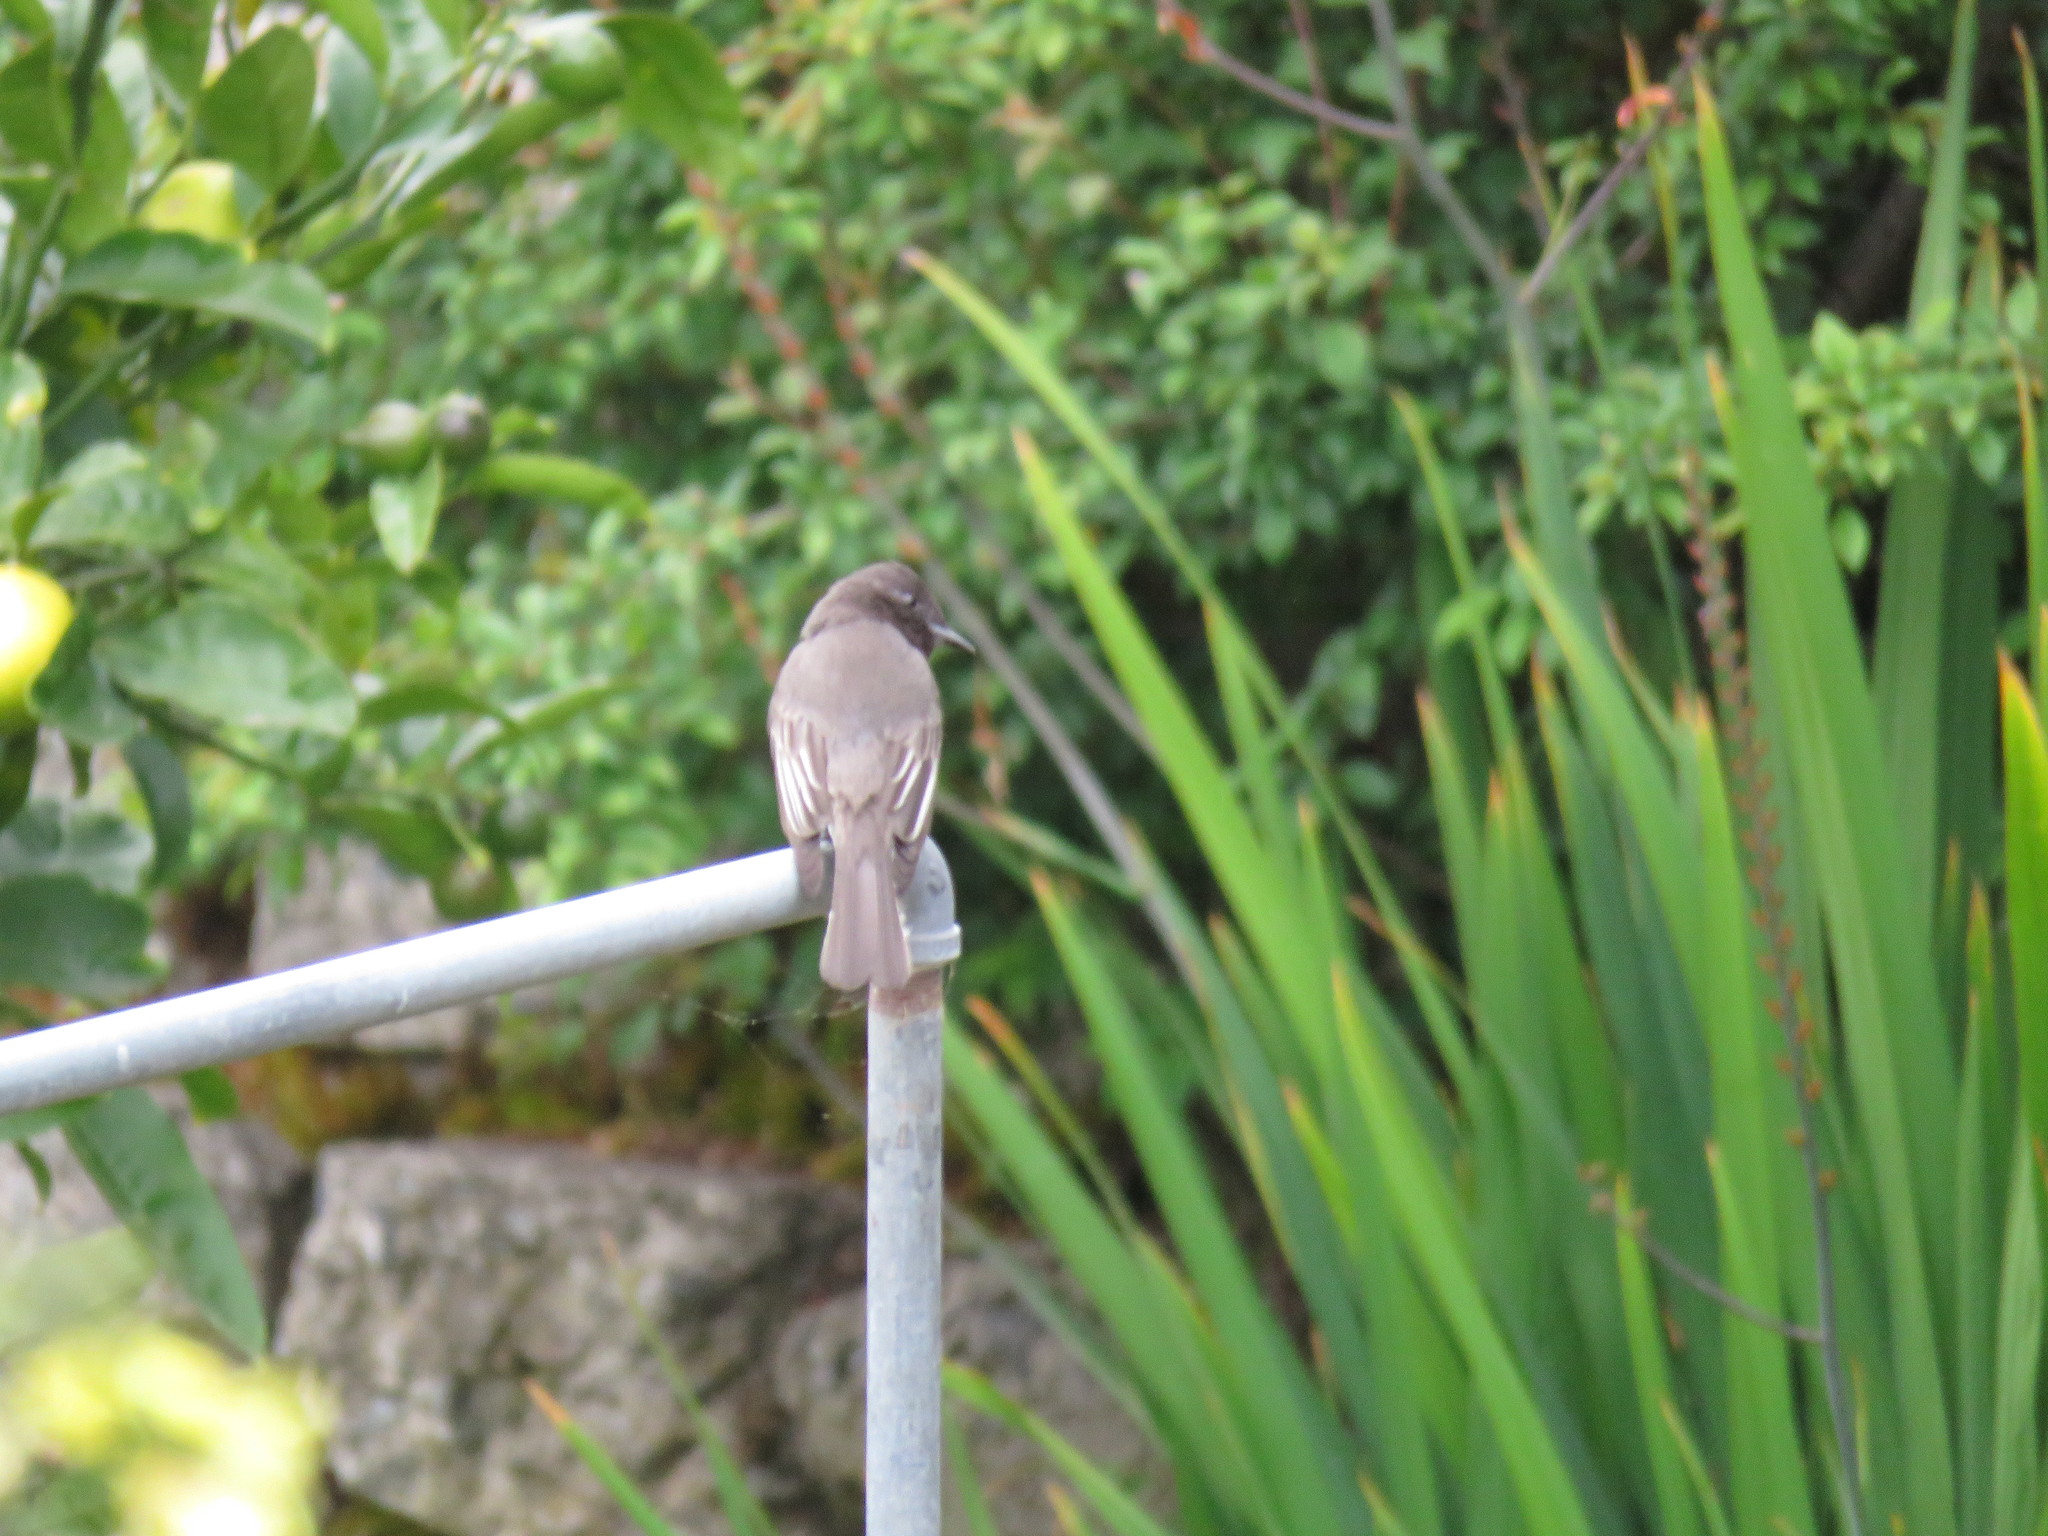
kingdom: Animalia
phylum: Chordata
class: Aves
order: Passeriformes
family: Tyrannidae
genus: Sayornis
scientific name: Sayornis nigricans
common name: Black phoebe
